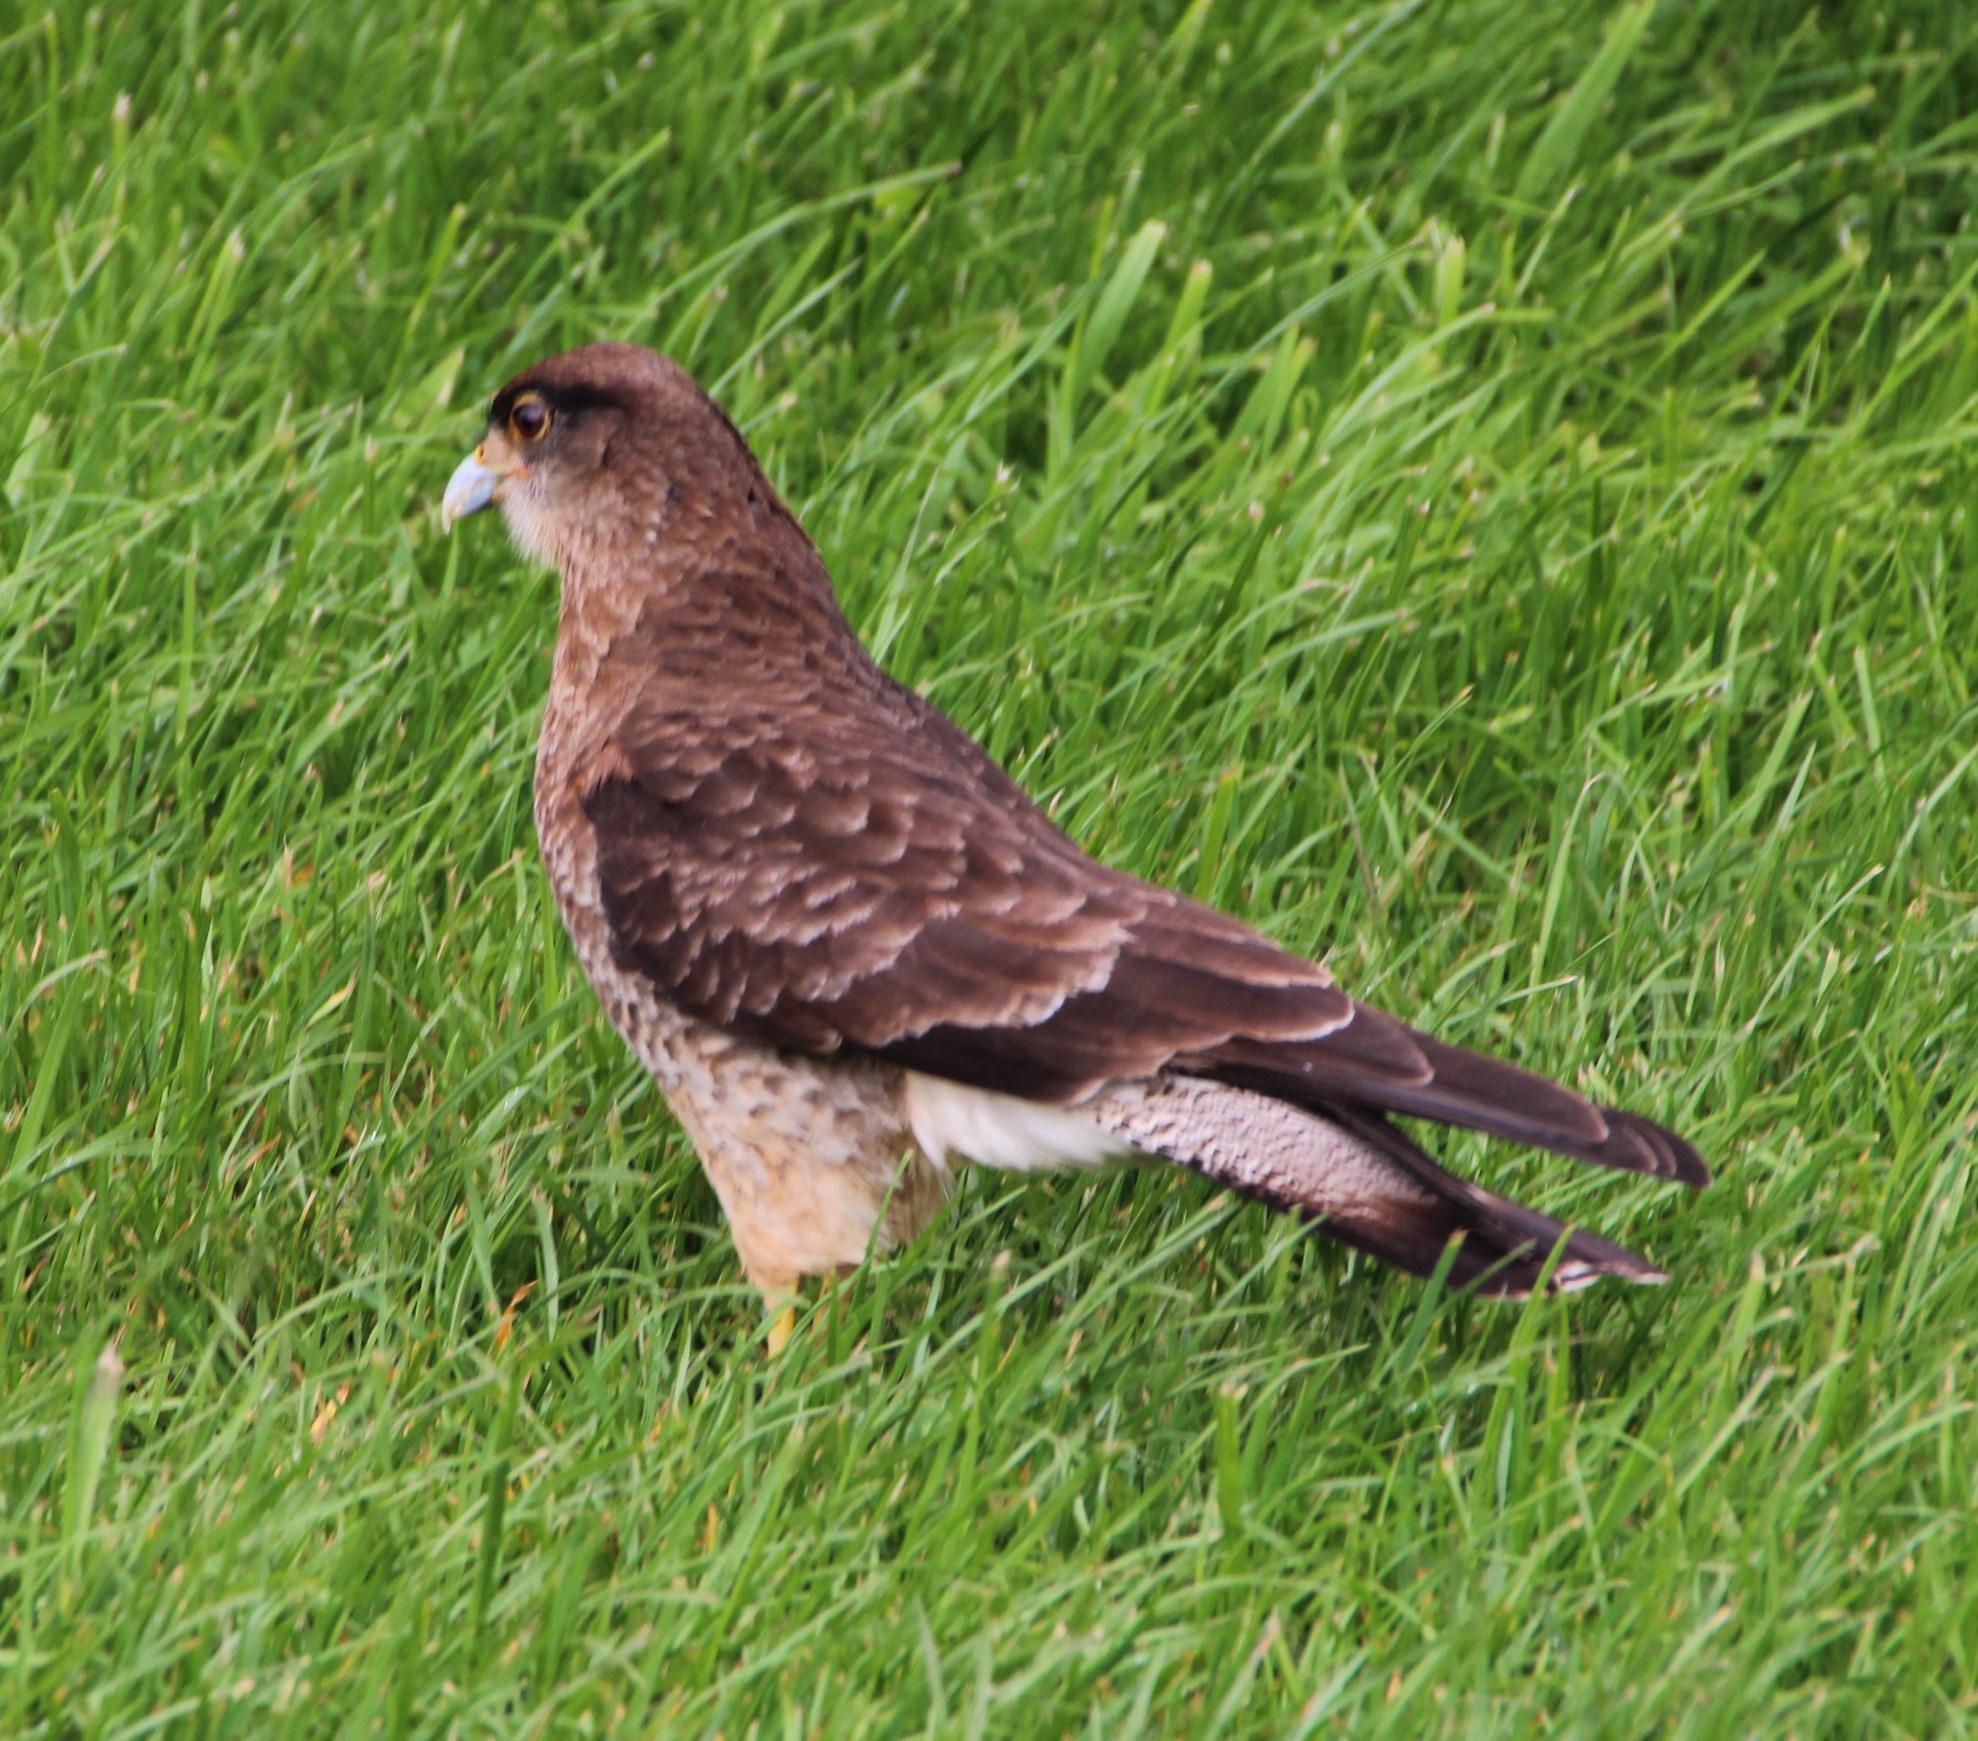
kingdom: Animalia
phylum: Chordata
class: Aves
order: Falconiformes
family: Falconidae
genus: Daptrius
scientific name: Daptrius
